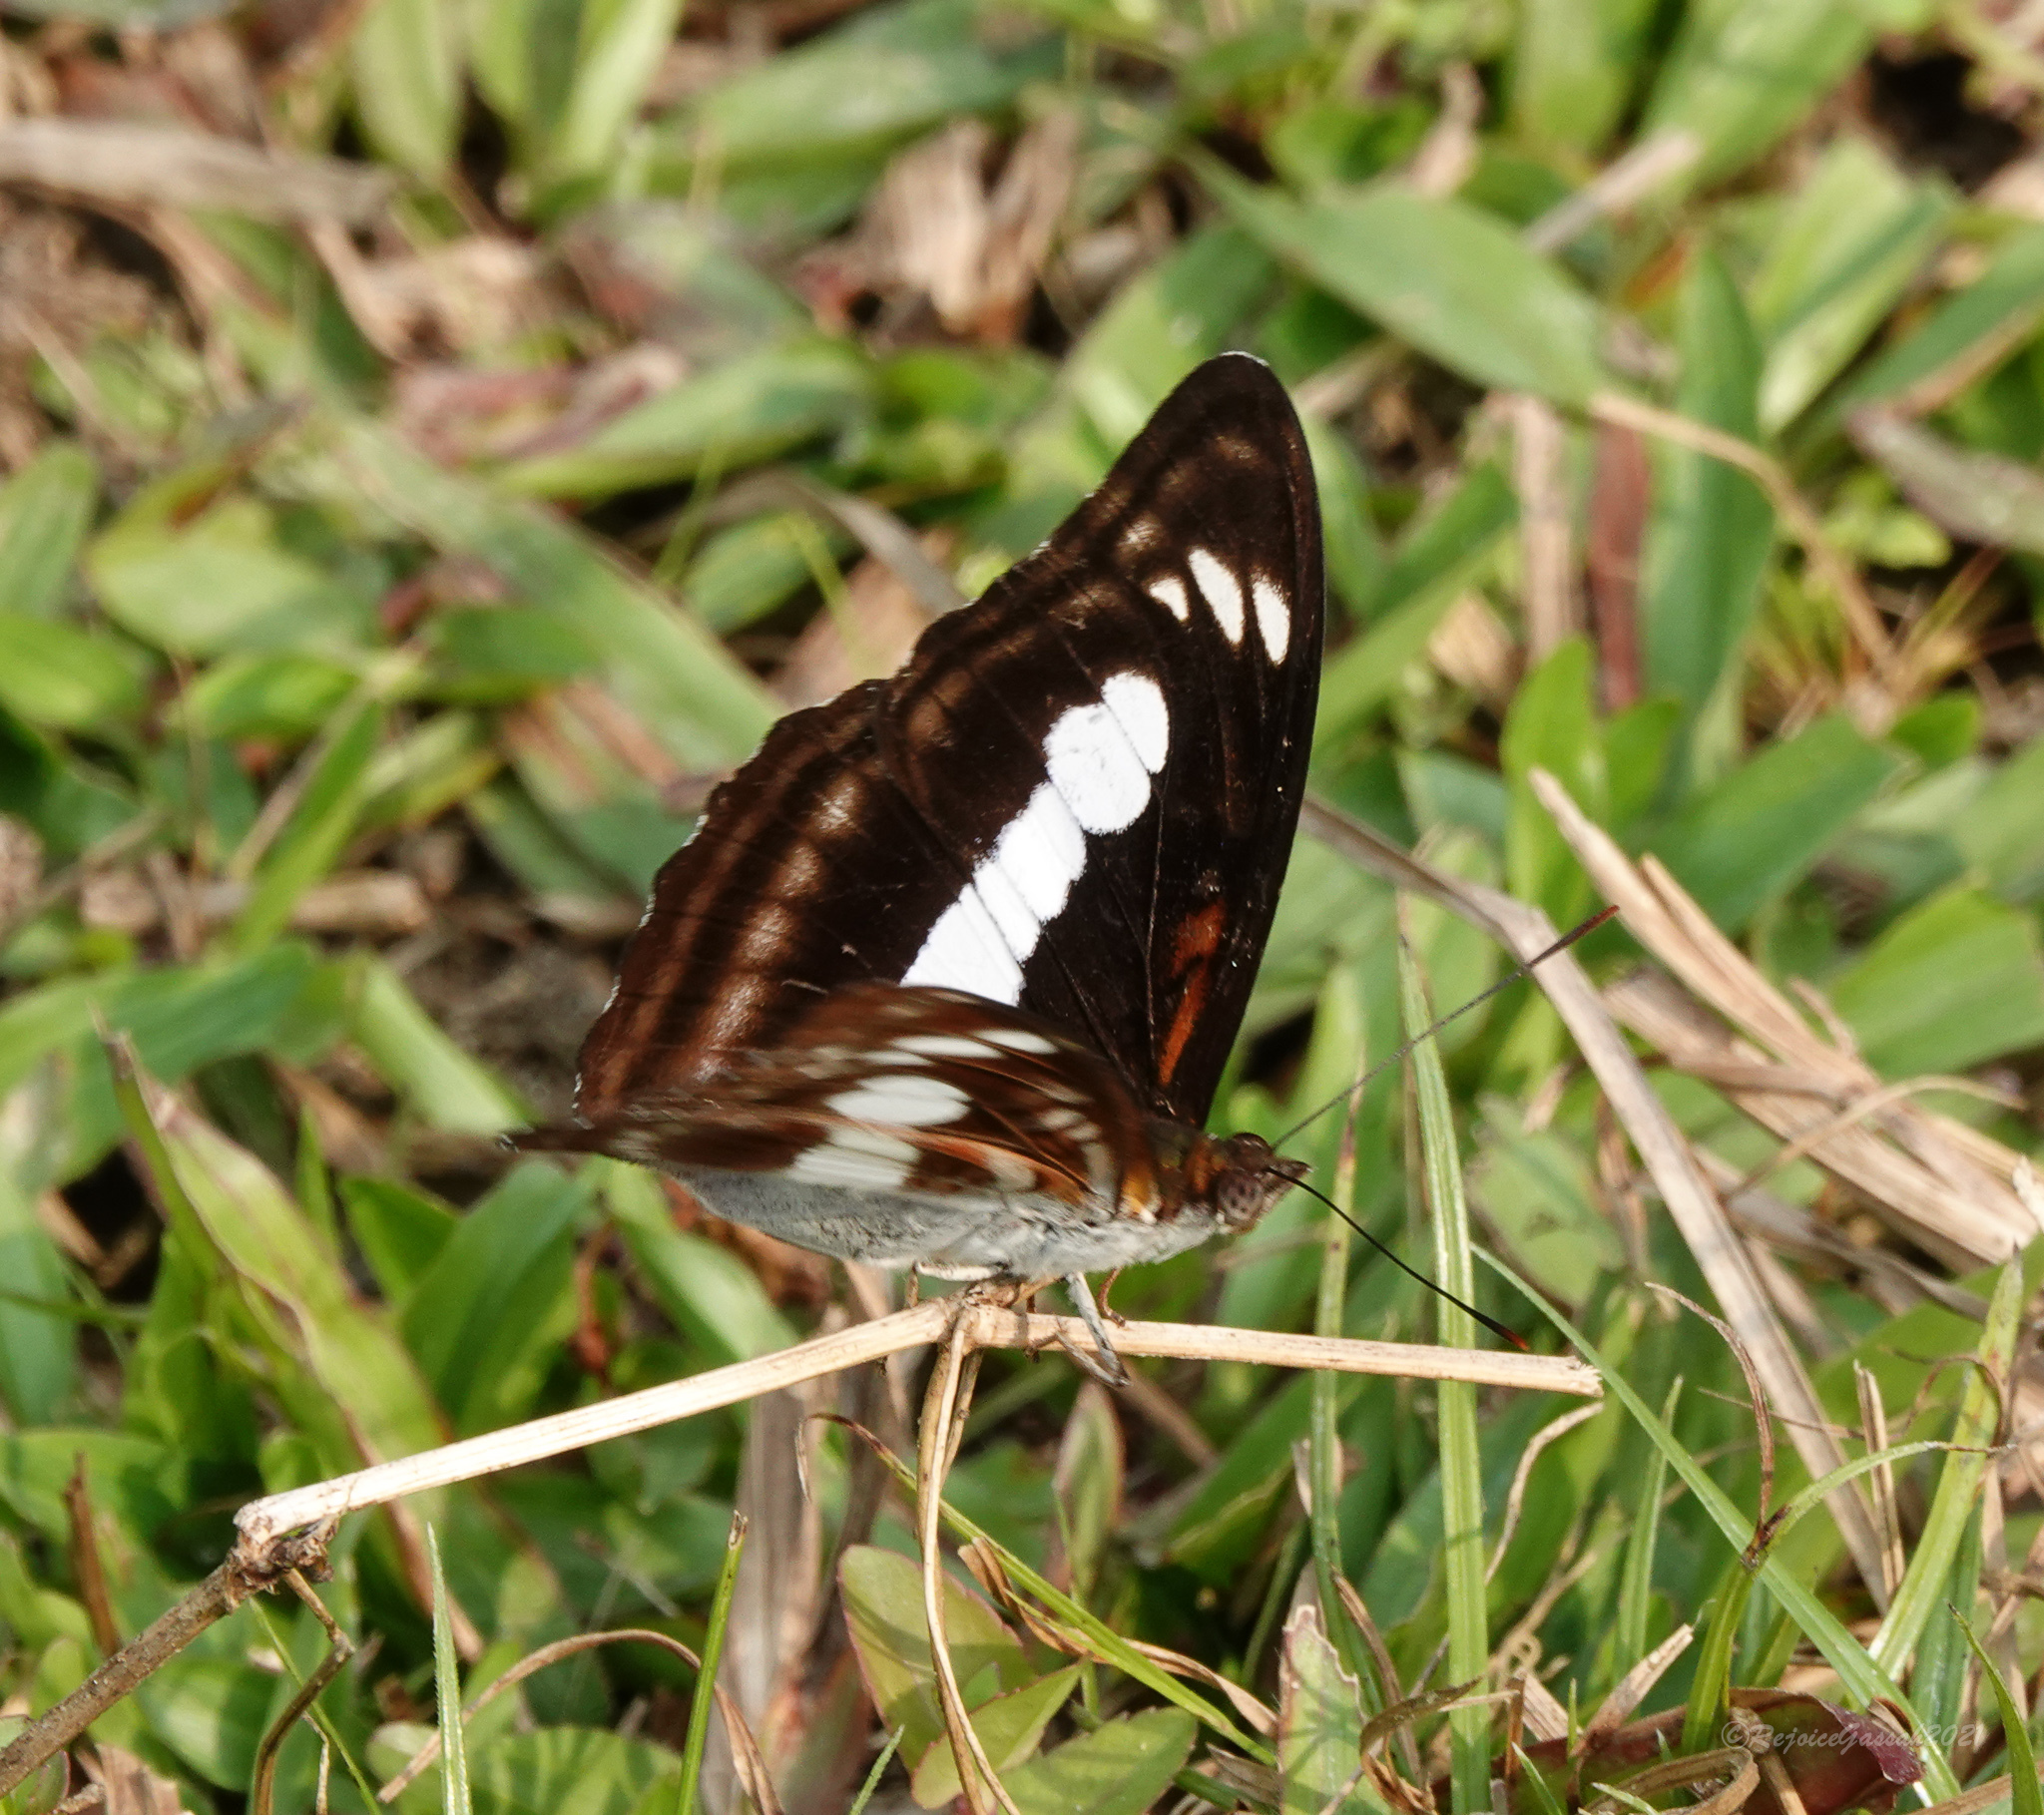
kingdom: Animalia
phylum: Arthropoda
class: Insecta
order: Lepidoptera
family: Nymphalidae
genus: Parathyma
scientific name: Parathyma selenophora
